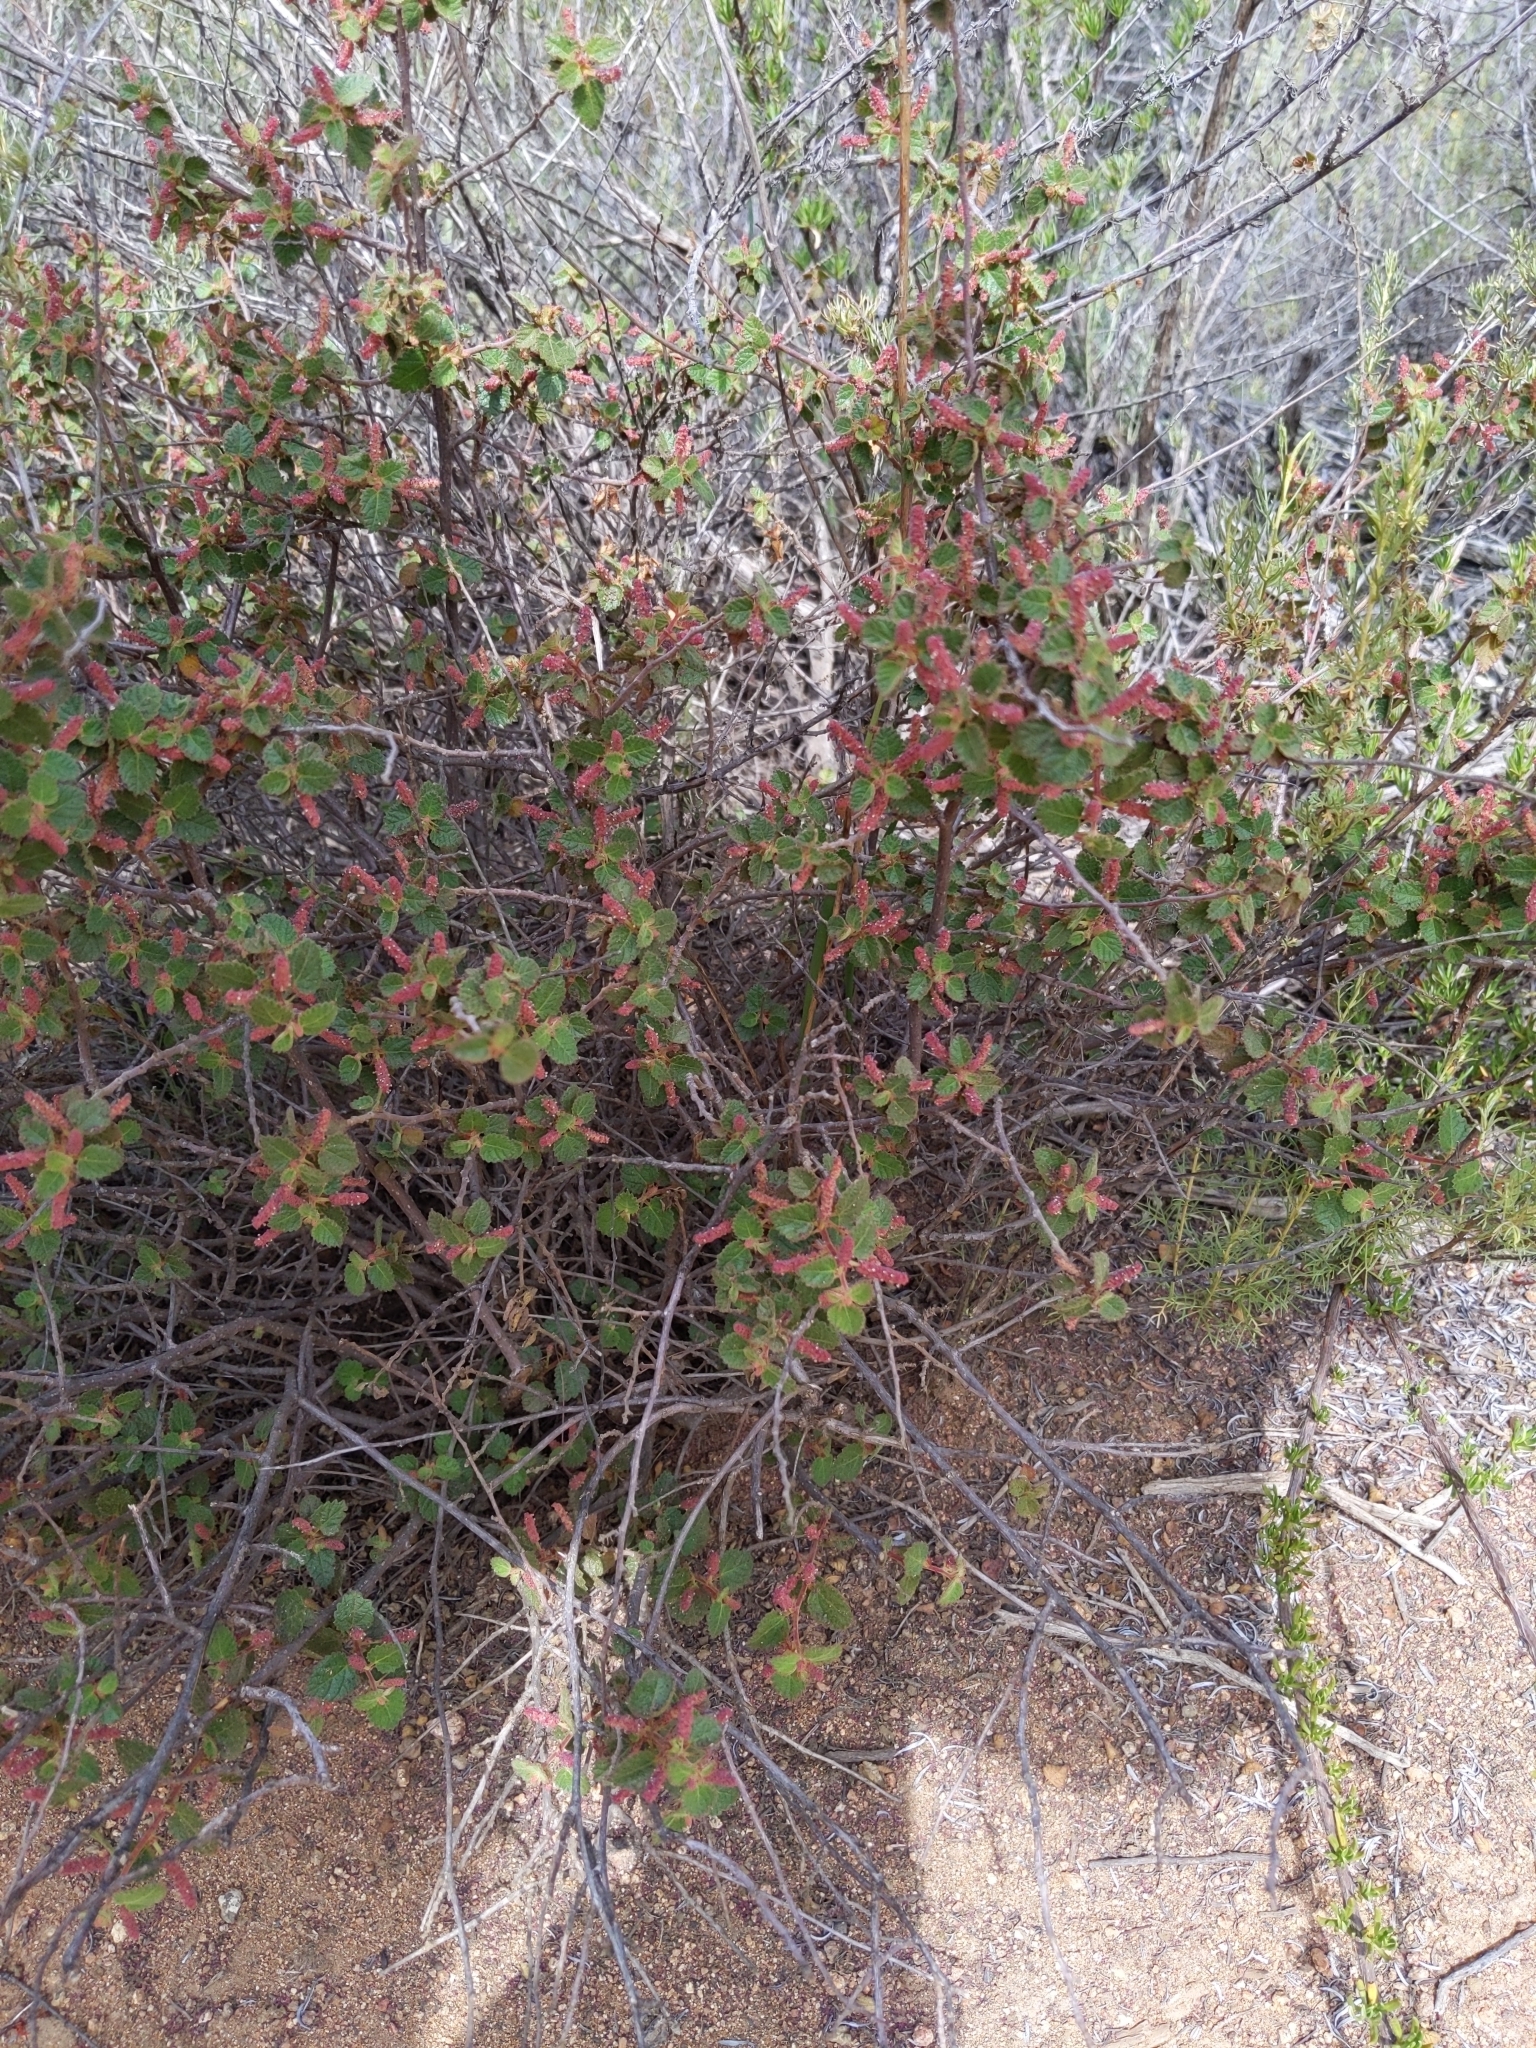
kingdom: Plantae
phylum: Tracheophyta
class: Magnoliopsida
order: Malpighiales
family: Euphorbiaceae
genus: Acalypha
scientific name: Acalypha californica
